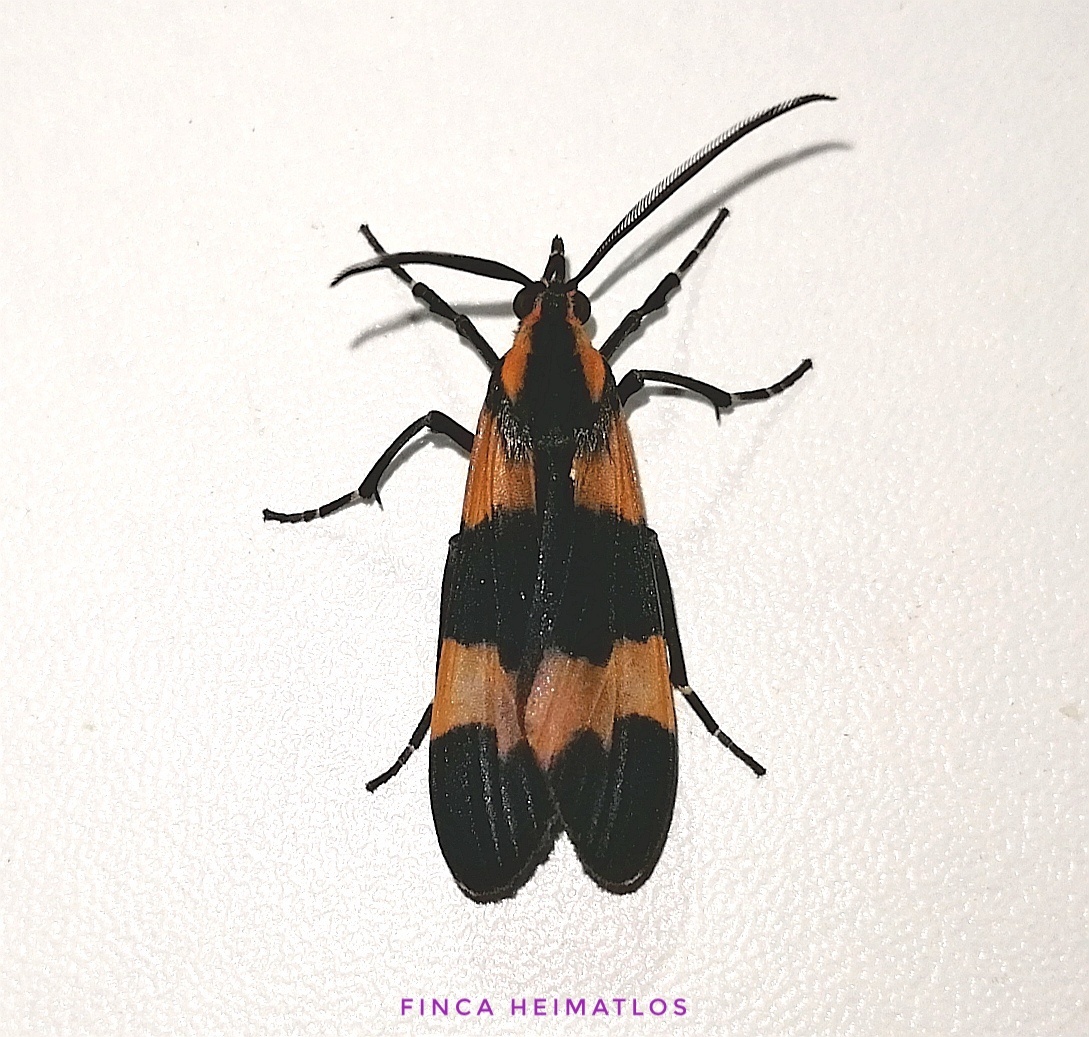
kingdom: Animalia
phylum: Arthropoda
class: Insecta
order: Lepidoptera
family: Erebidae
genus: Correbia
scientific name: Correbia obtusa
